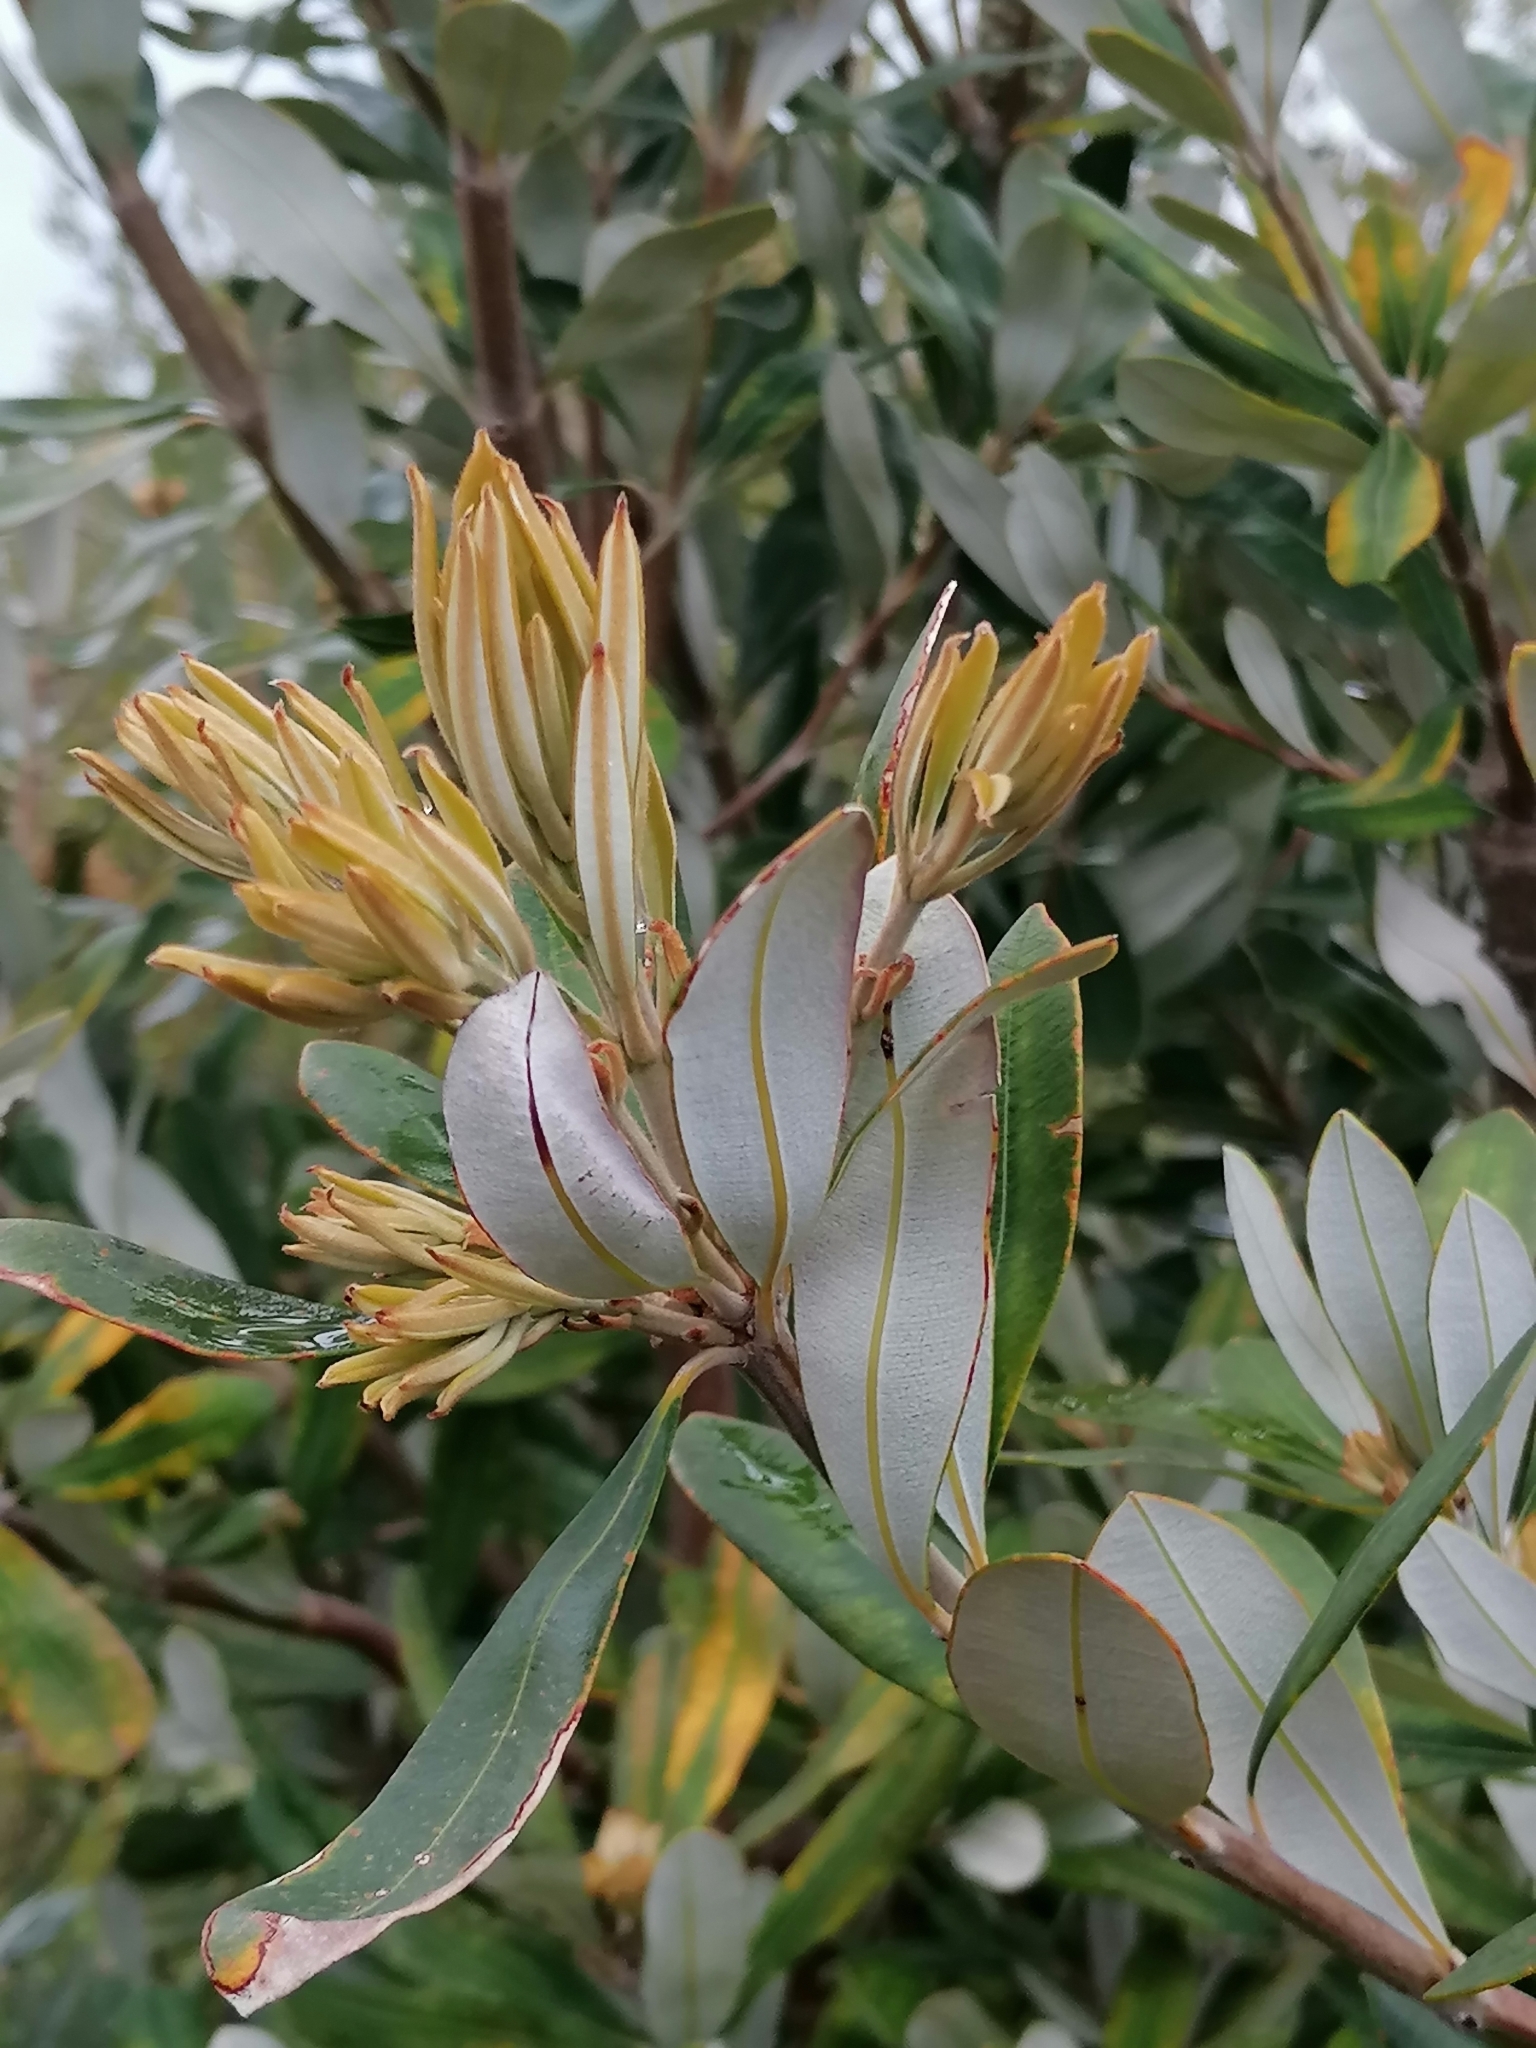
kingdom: Plantae
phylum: Tracheophyta
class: Magnoliopsida
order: Proteales
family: Proteaceae
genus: Banksia
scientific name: Banksia integrifolia
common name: White-honeysuckle
